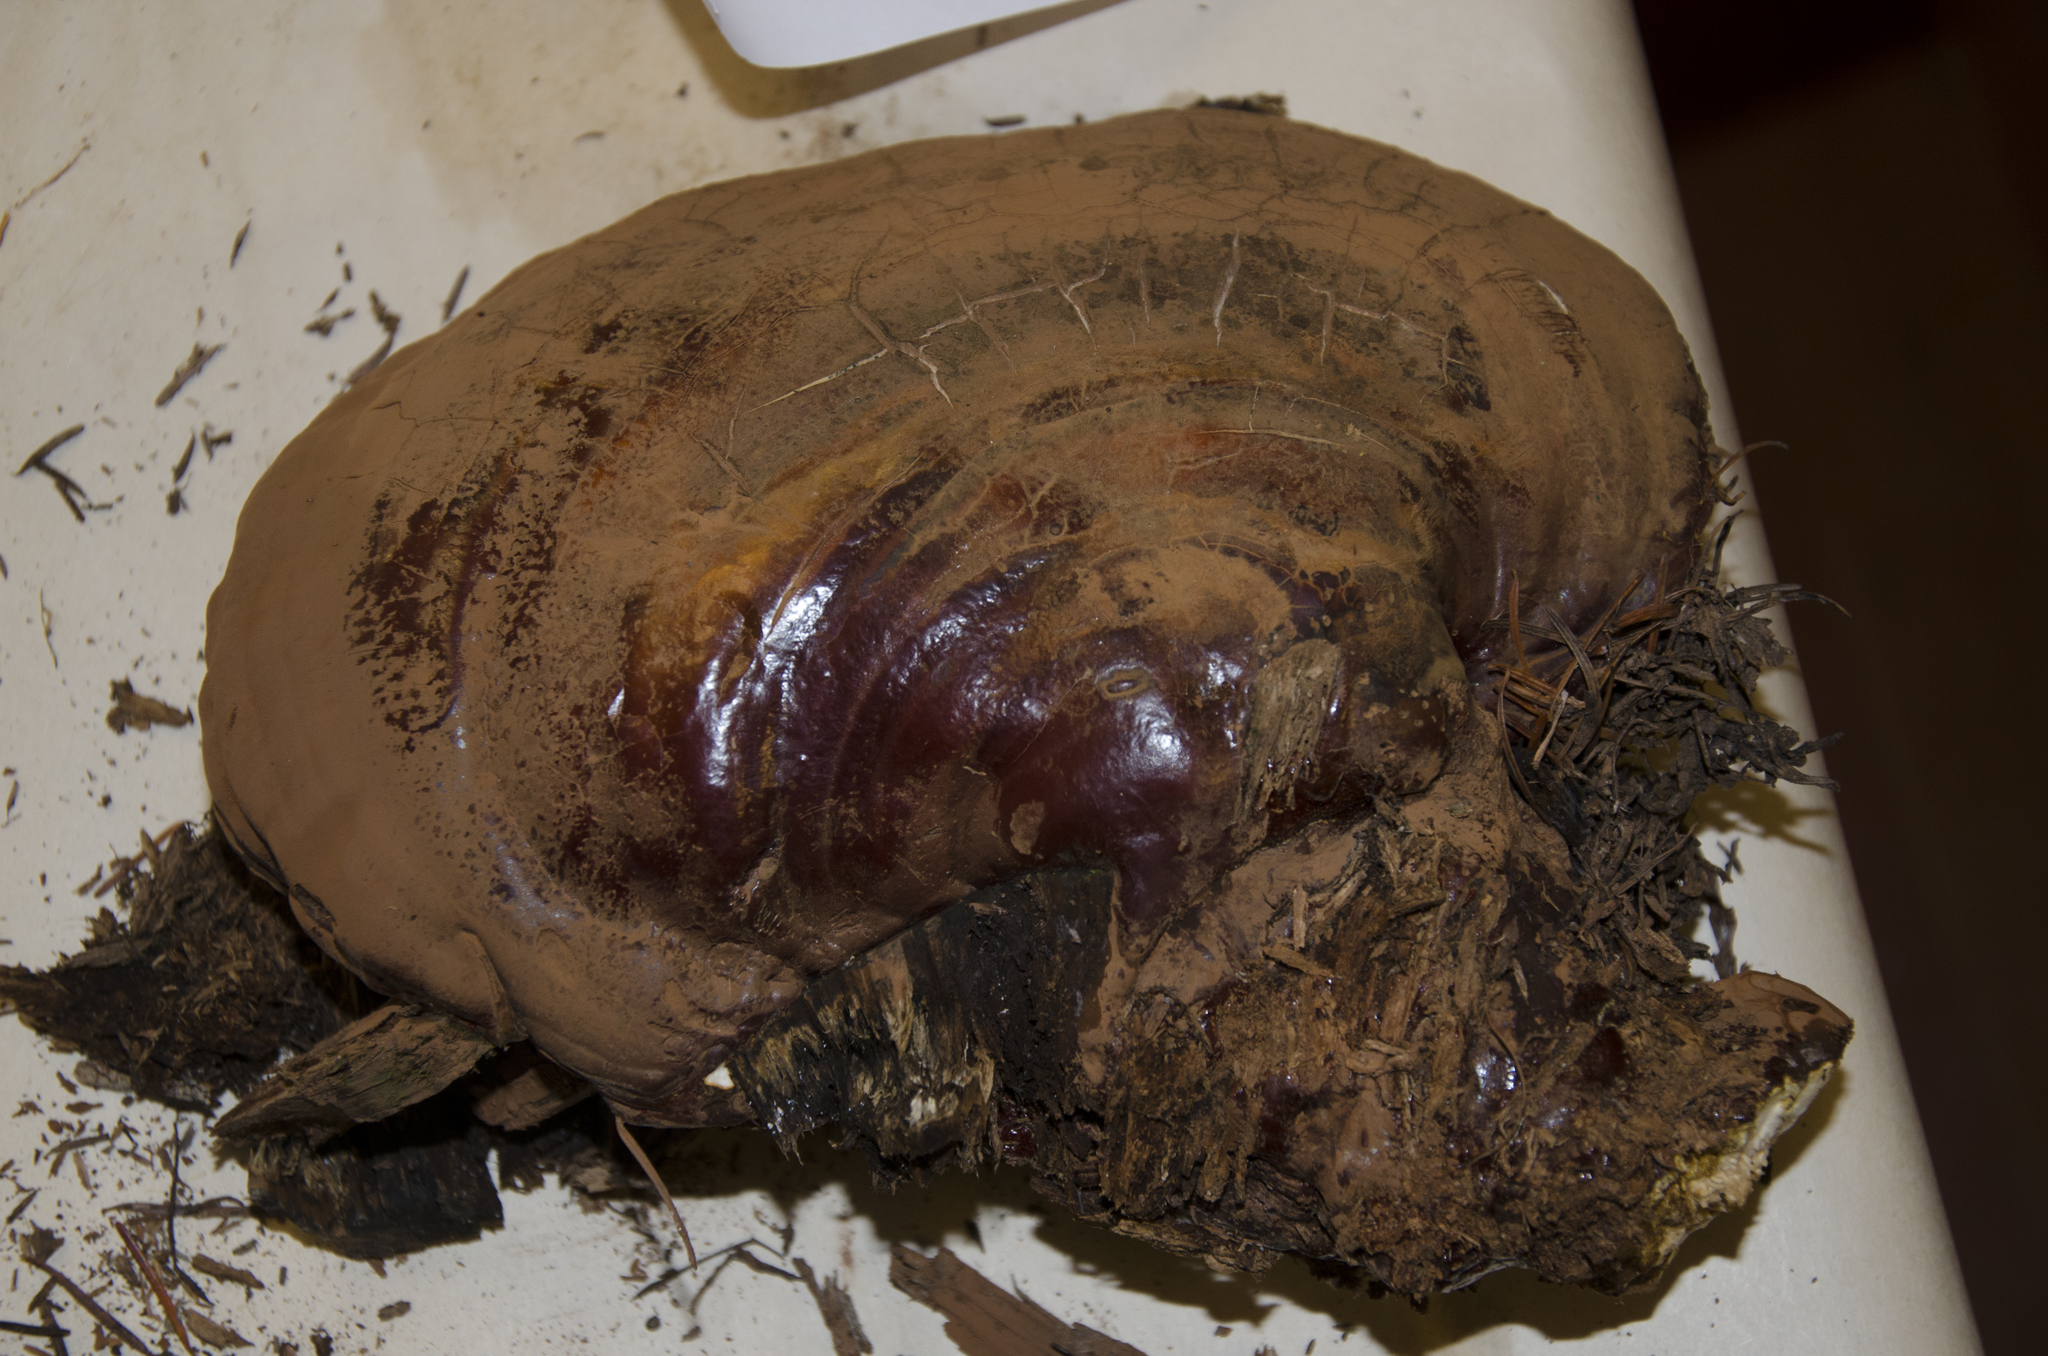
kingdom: Fungi
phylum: Basidiomycota
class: Agaricomycetes
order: Polyporales
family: Polyporaceae
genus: Ganoderma
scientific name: Ganoderma oregonense
